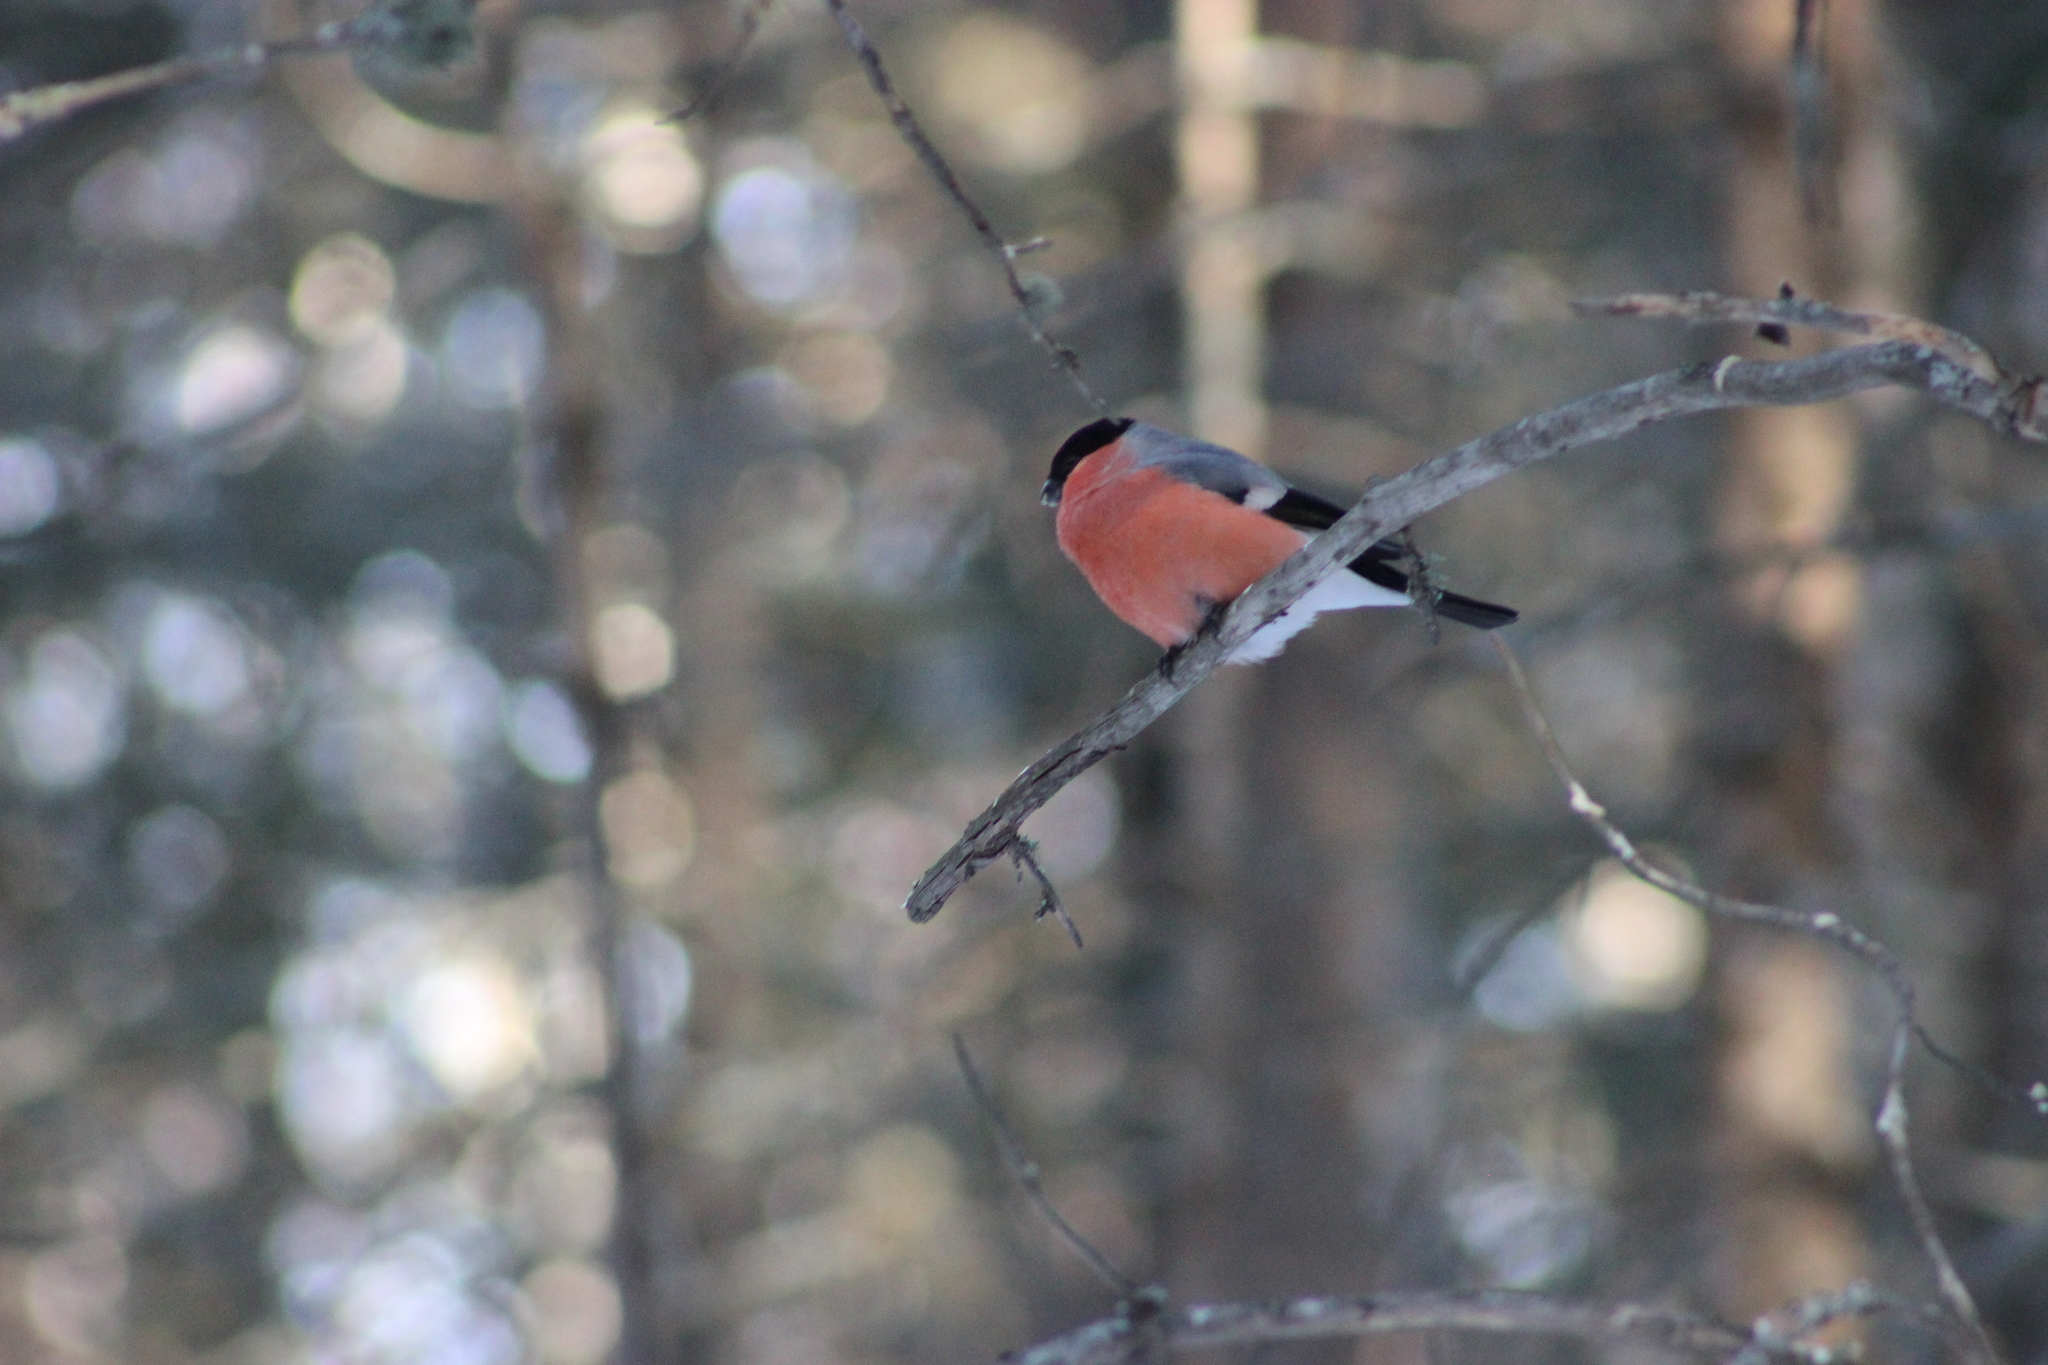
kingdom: Animalia
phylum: Chordata
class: Aves
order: Passeriformes
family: Fringillidae
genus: Pyrrhula
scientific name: Pyrrhula pyrrhula
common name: Eurasian bullfinch
